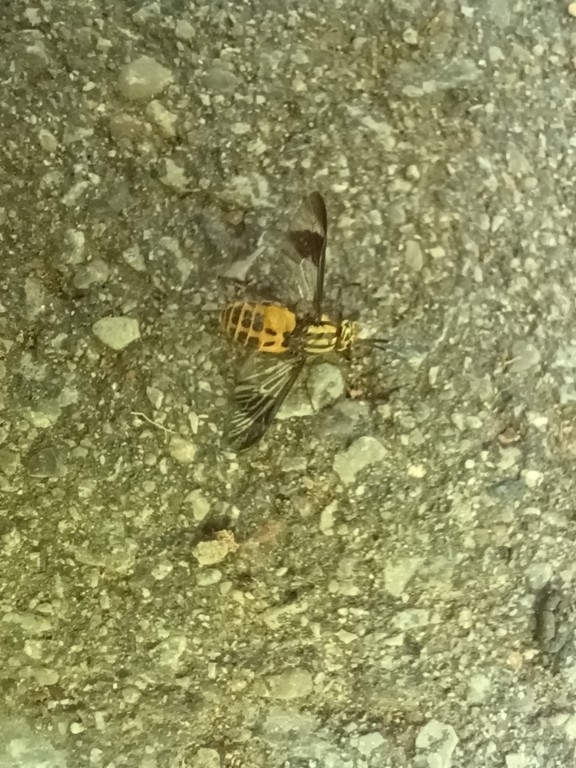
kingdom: Animalia
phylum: Arthropoda
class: Insecta
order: Diptera
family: Tabanidae
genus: Chrysops
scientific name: Chrysops geminatus
